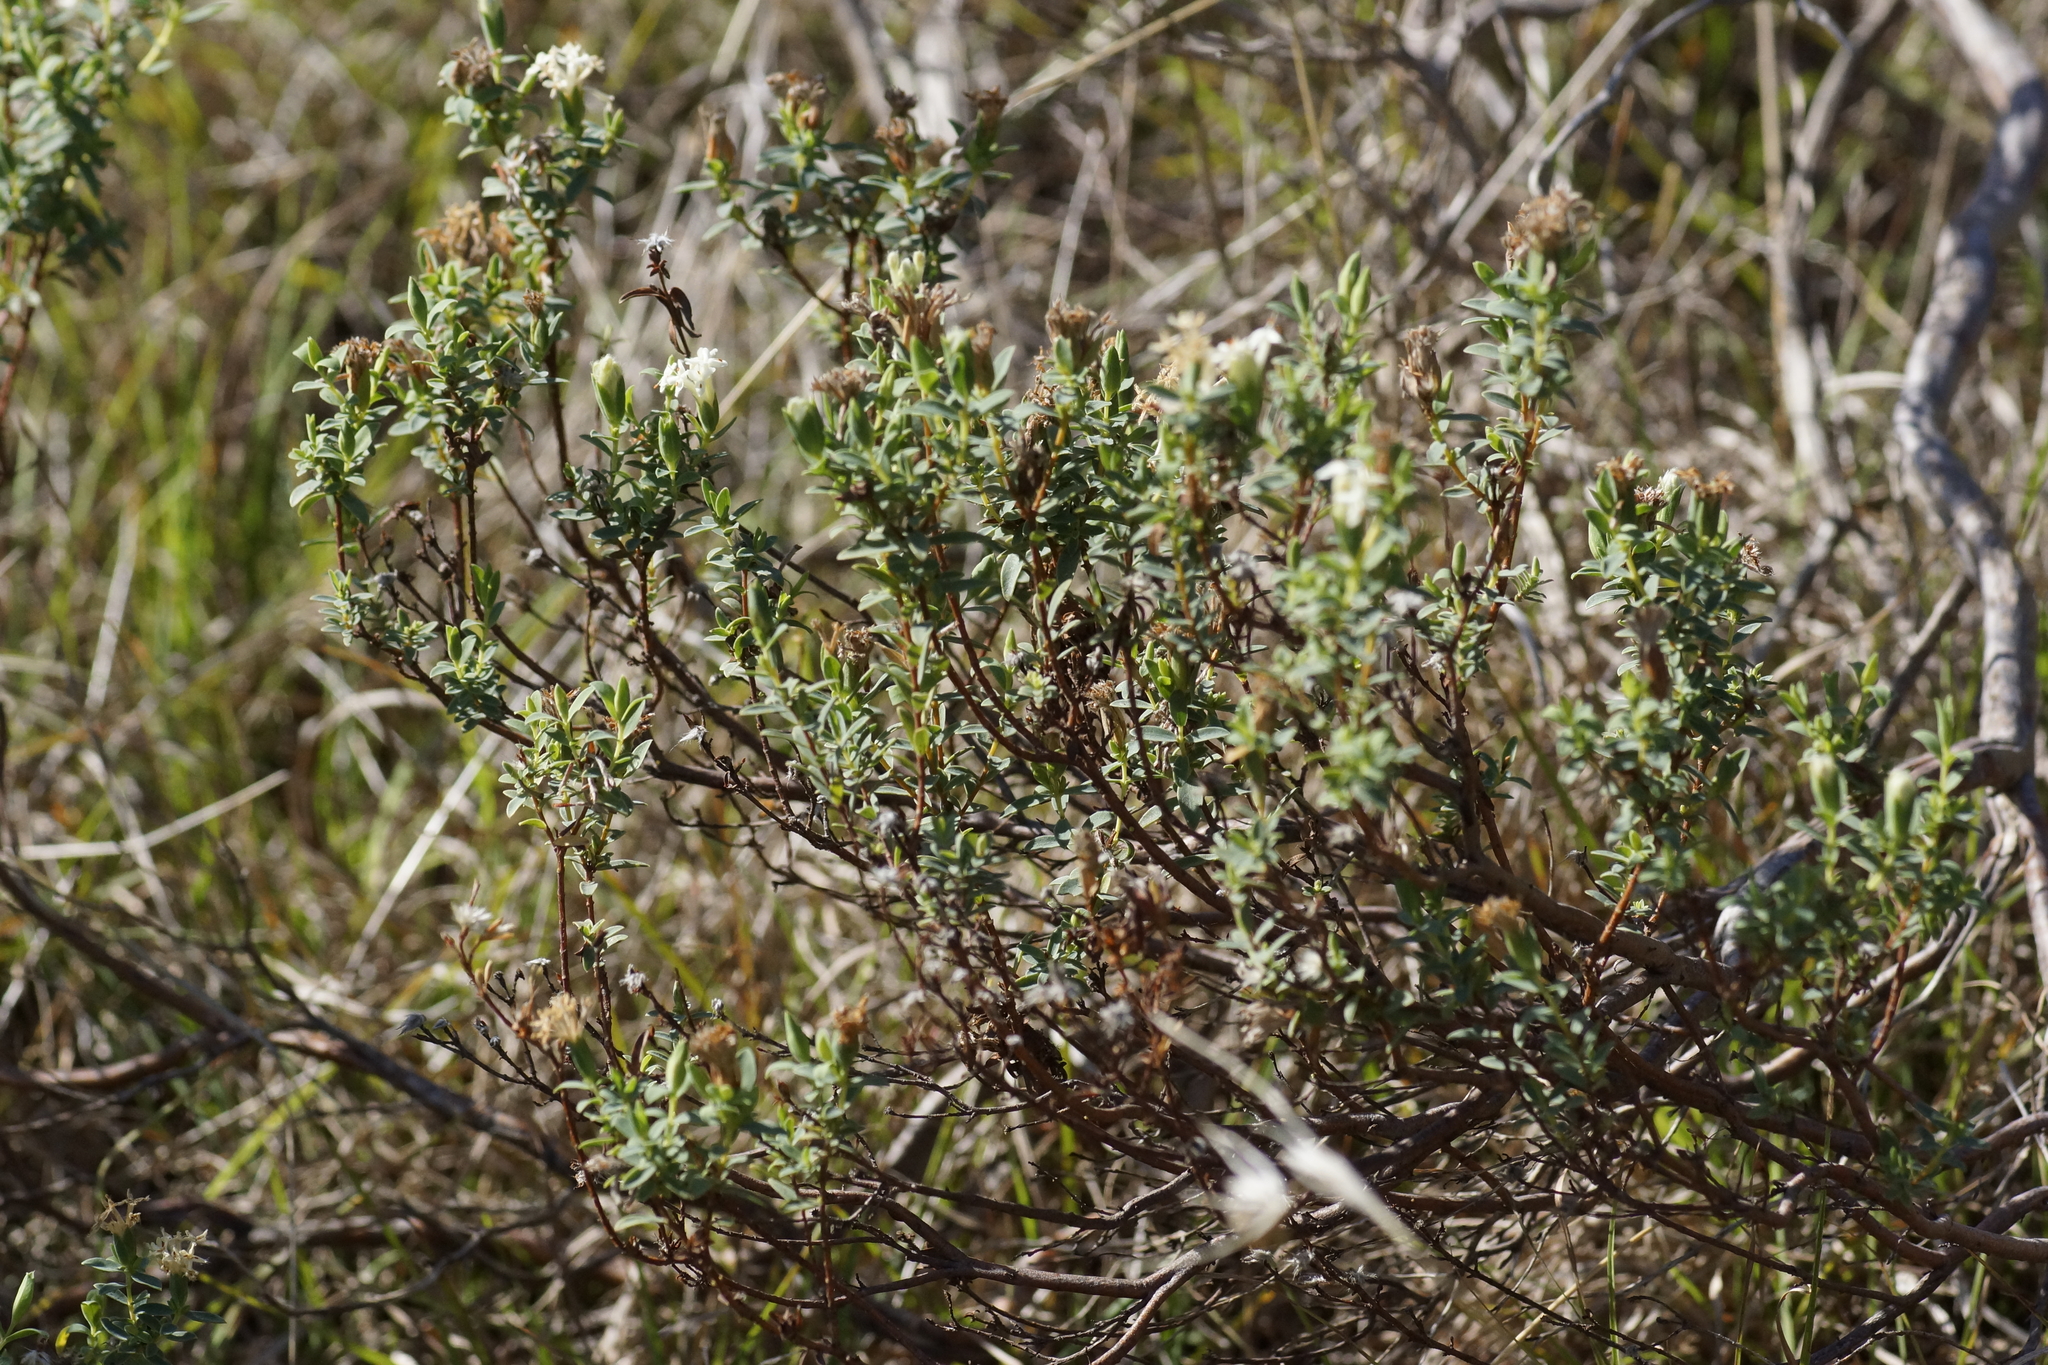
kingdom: Plantae
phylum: Tracheophyta
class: Magnoliopsida
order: Malvales
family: Thymelaeaceae
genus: Pimelea
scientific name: Pimelea glauca
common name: Smooth riceflower
